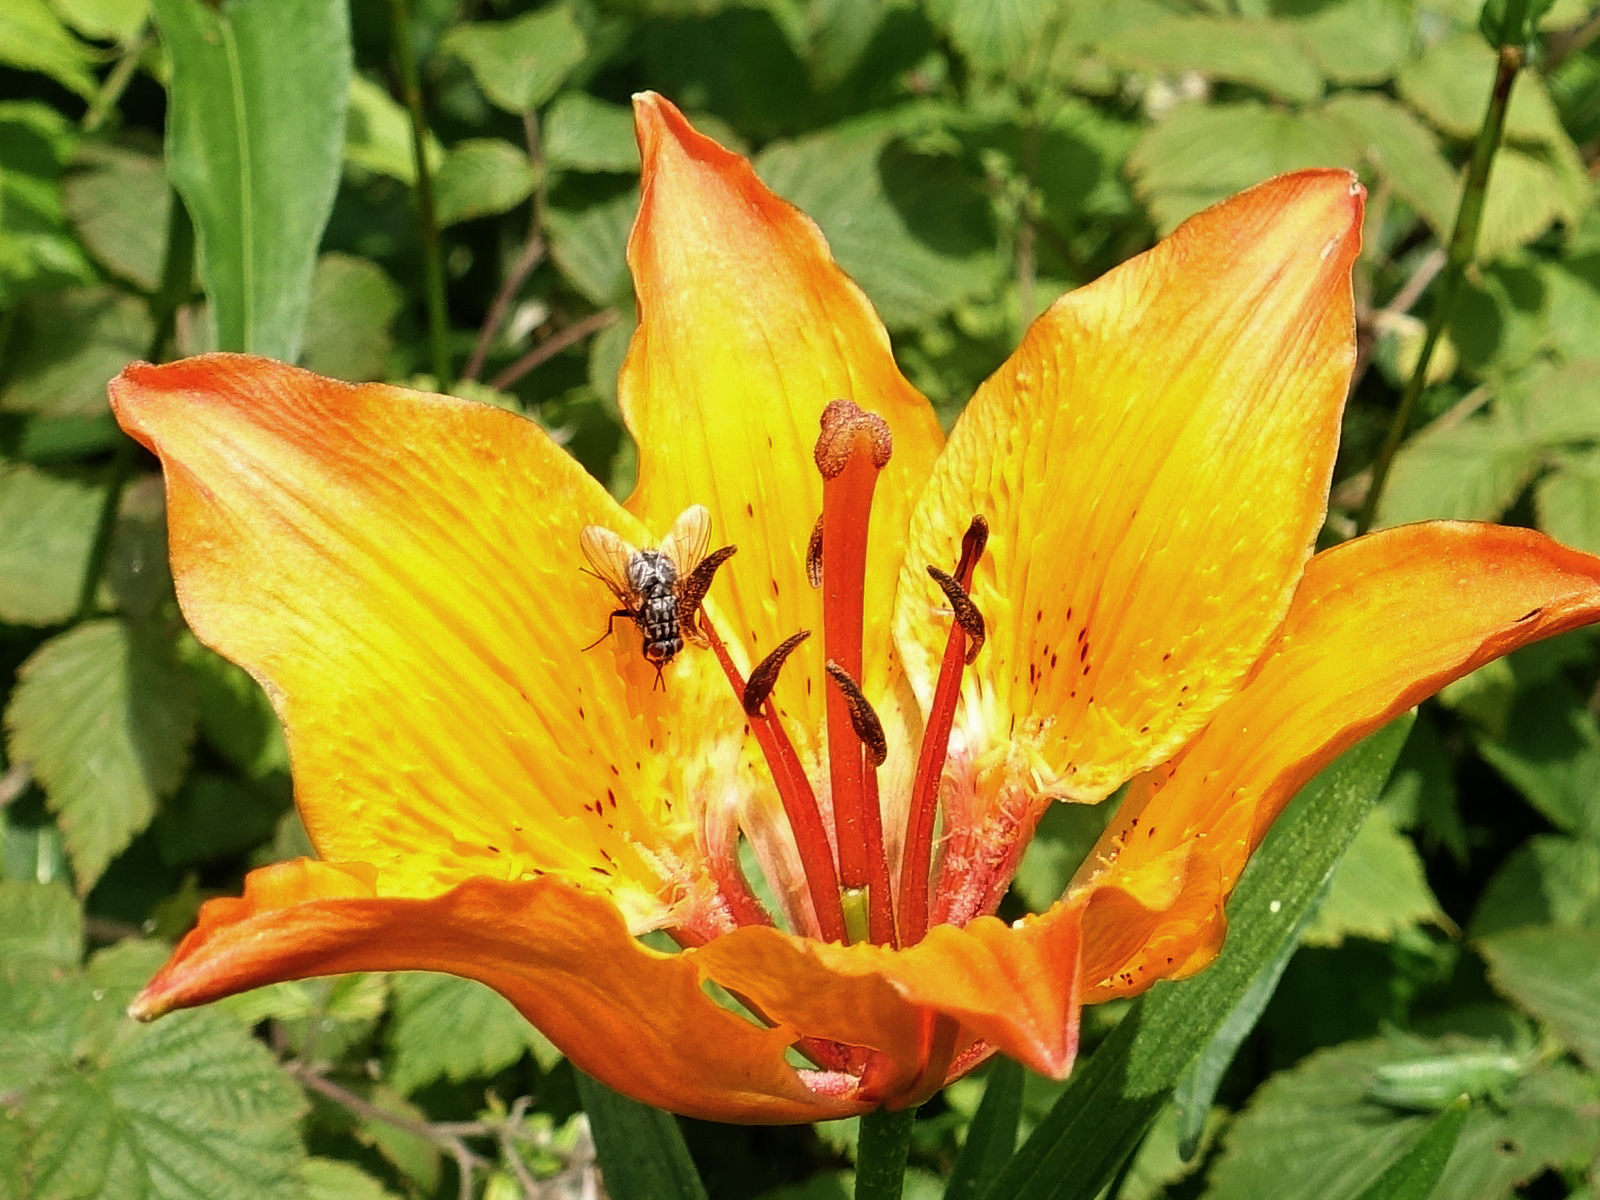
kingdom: Plantae
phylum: Tracheophyta
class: Liliopsida
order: Liliales
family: Liliaceae
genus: Lilium
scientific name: Lilium bulbiferum
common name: Orange lily
